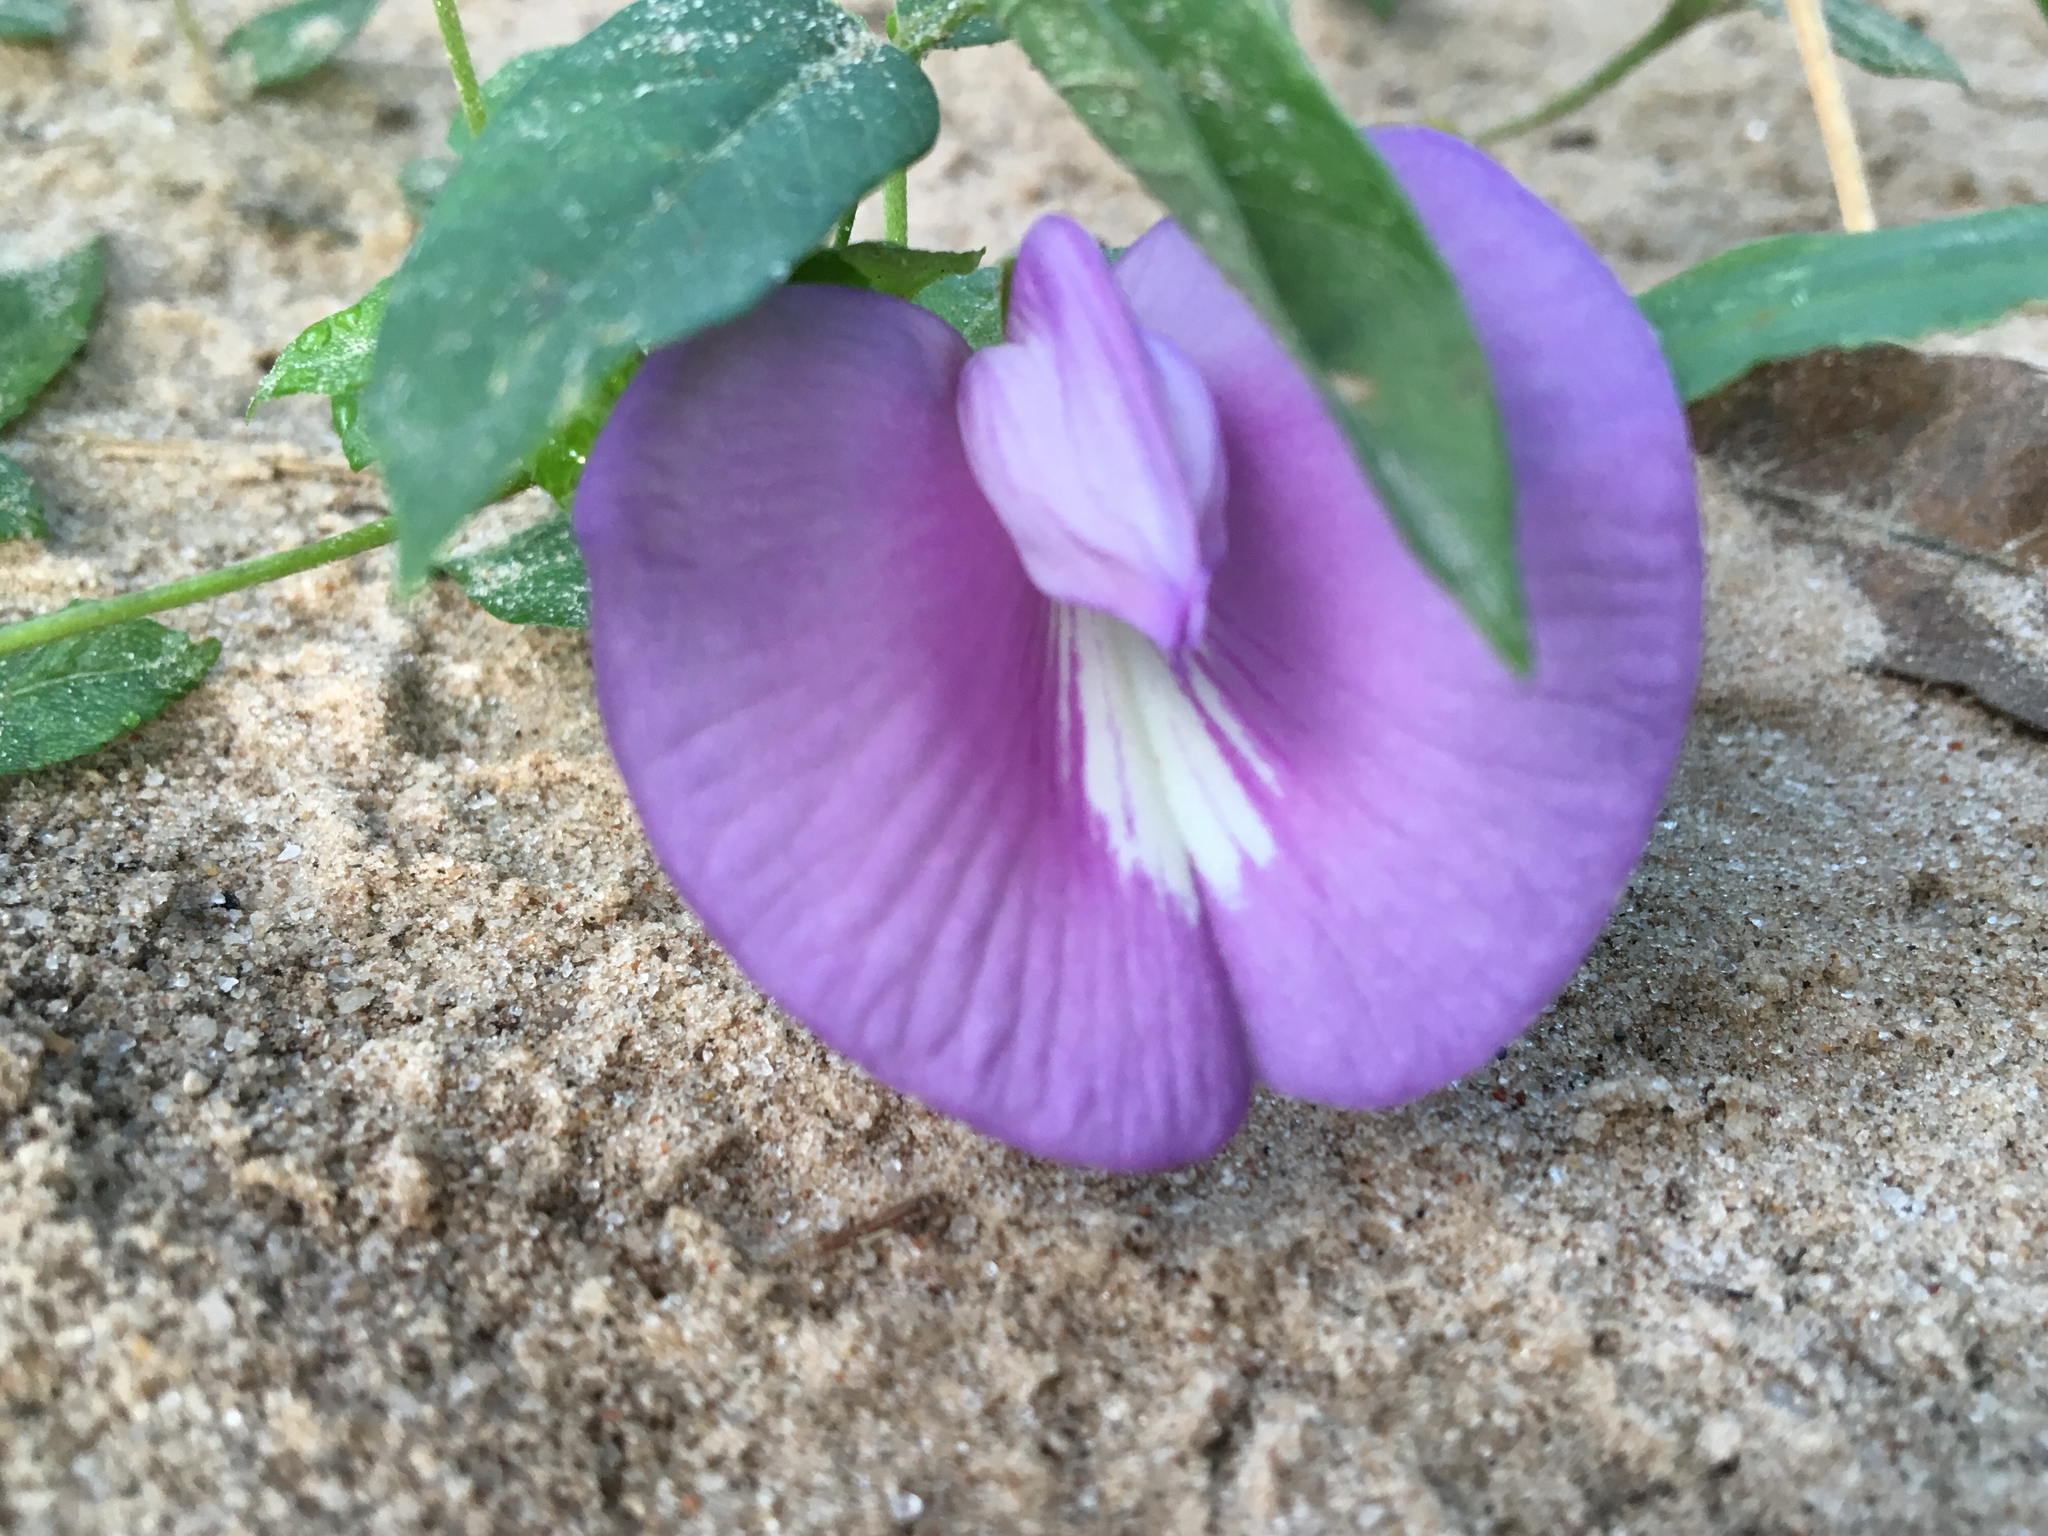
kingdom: Plantae
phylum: Tracheophyta
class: Magnoliopsida
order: Fabales
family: Fabaceae
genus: Centrosema
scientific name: Centrosema virginianum
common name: Butterfly-pea
